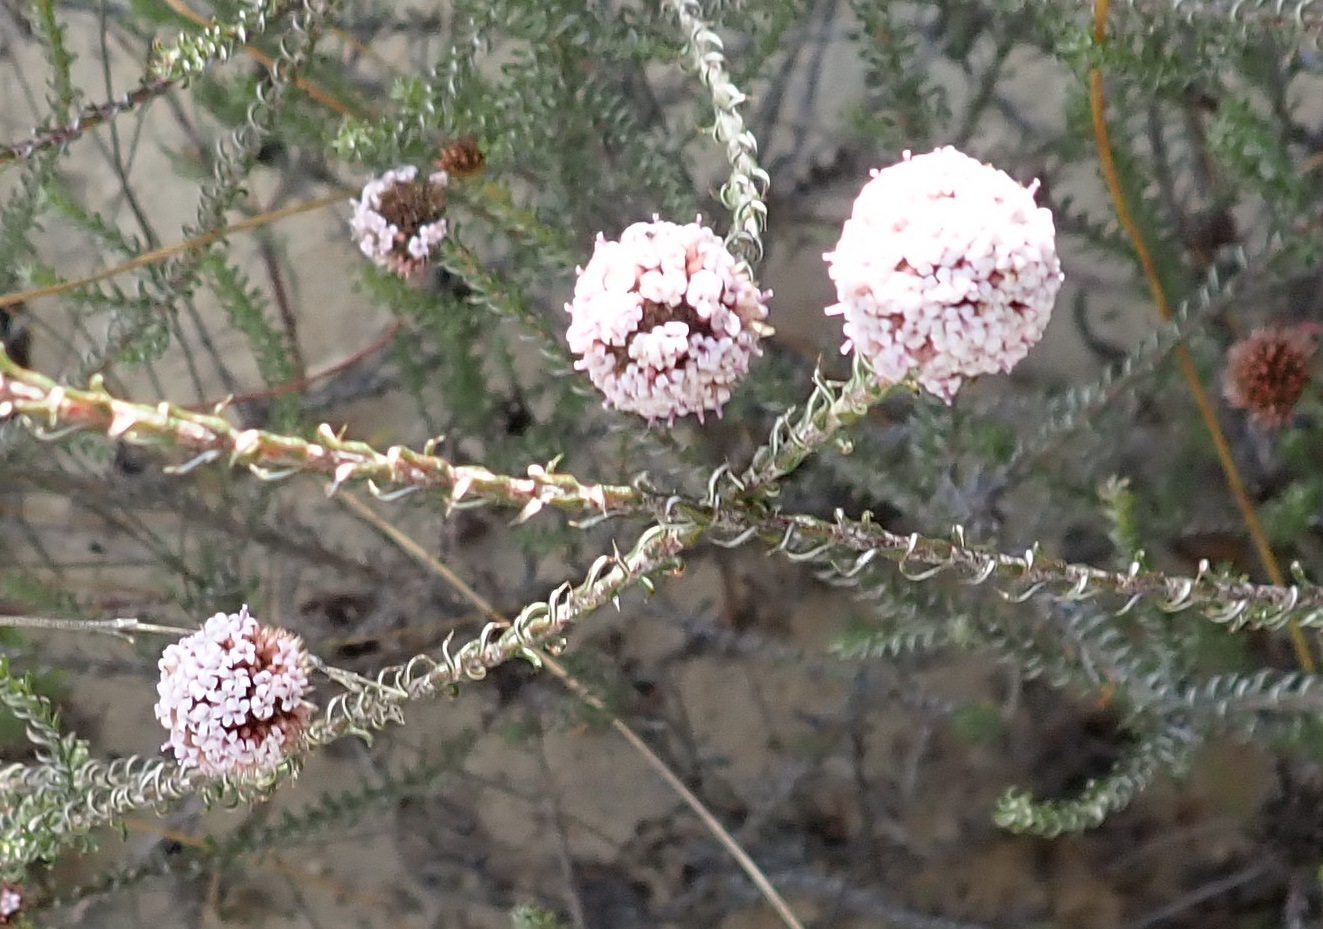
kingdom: Plantae
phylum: Tracheophyta
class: Magnoliopsida
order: Asterales
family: Asteraceae
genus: Stoebe
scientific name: Stoebe capitata
